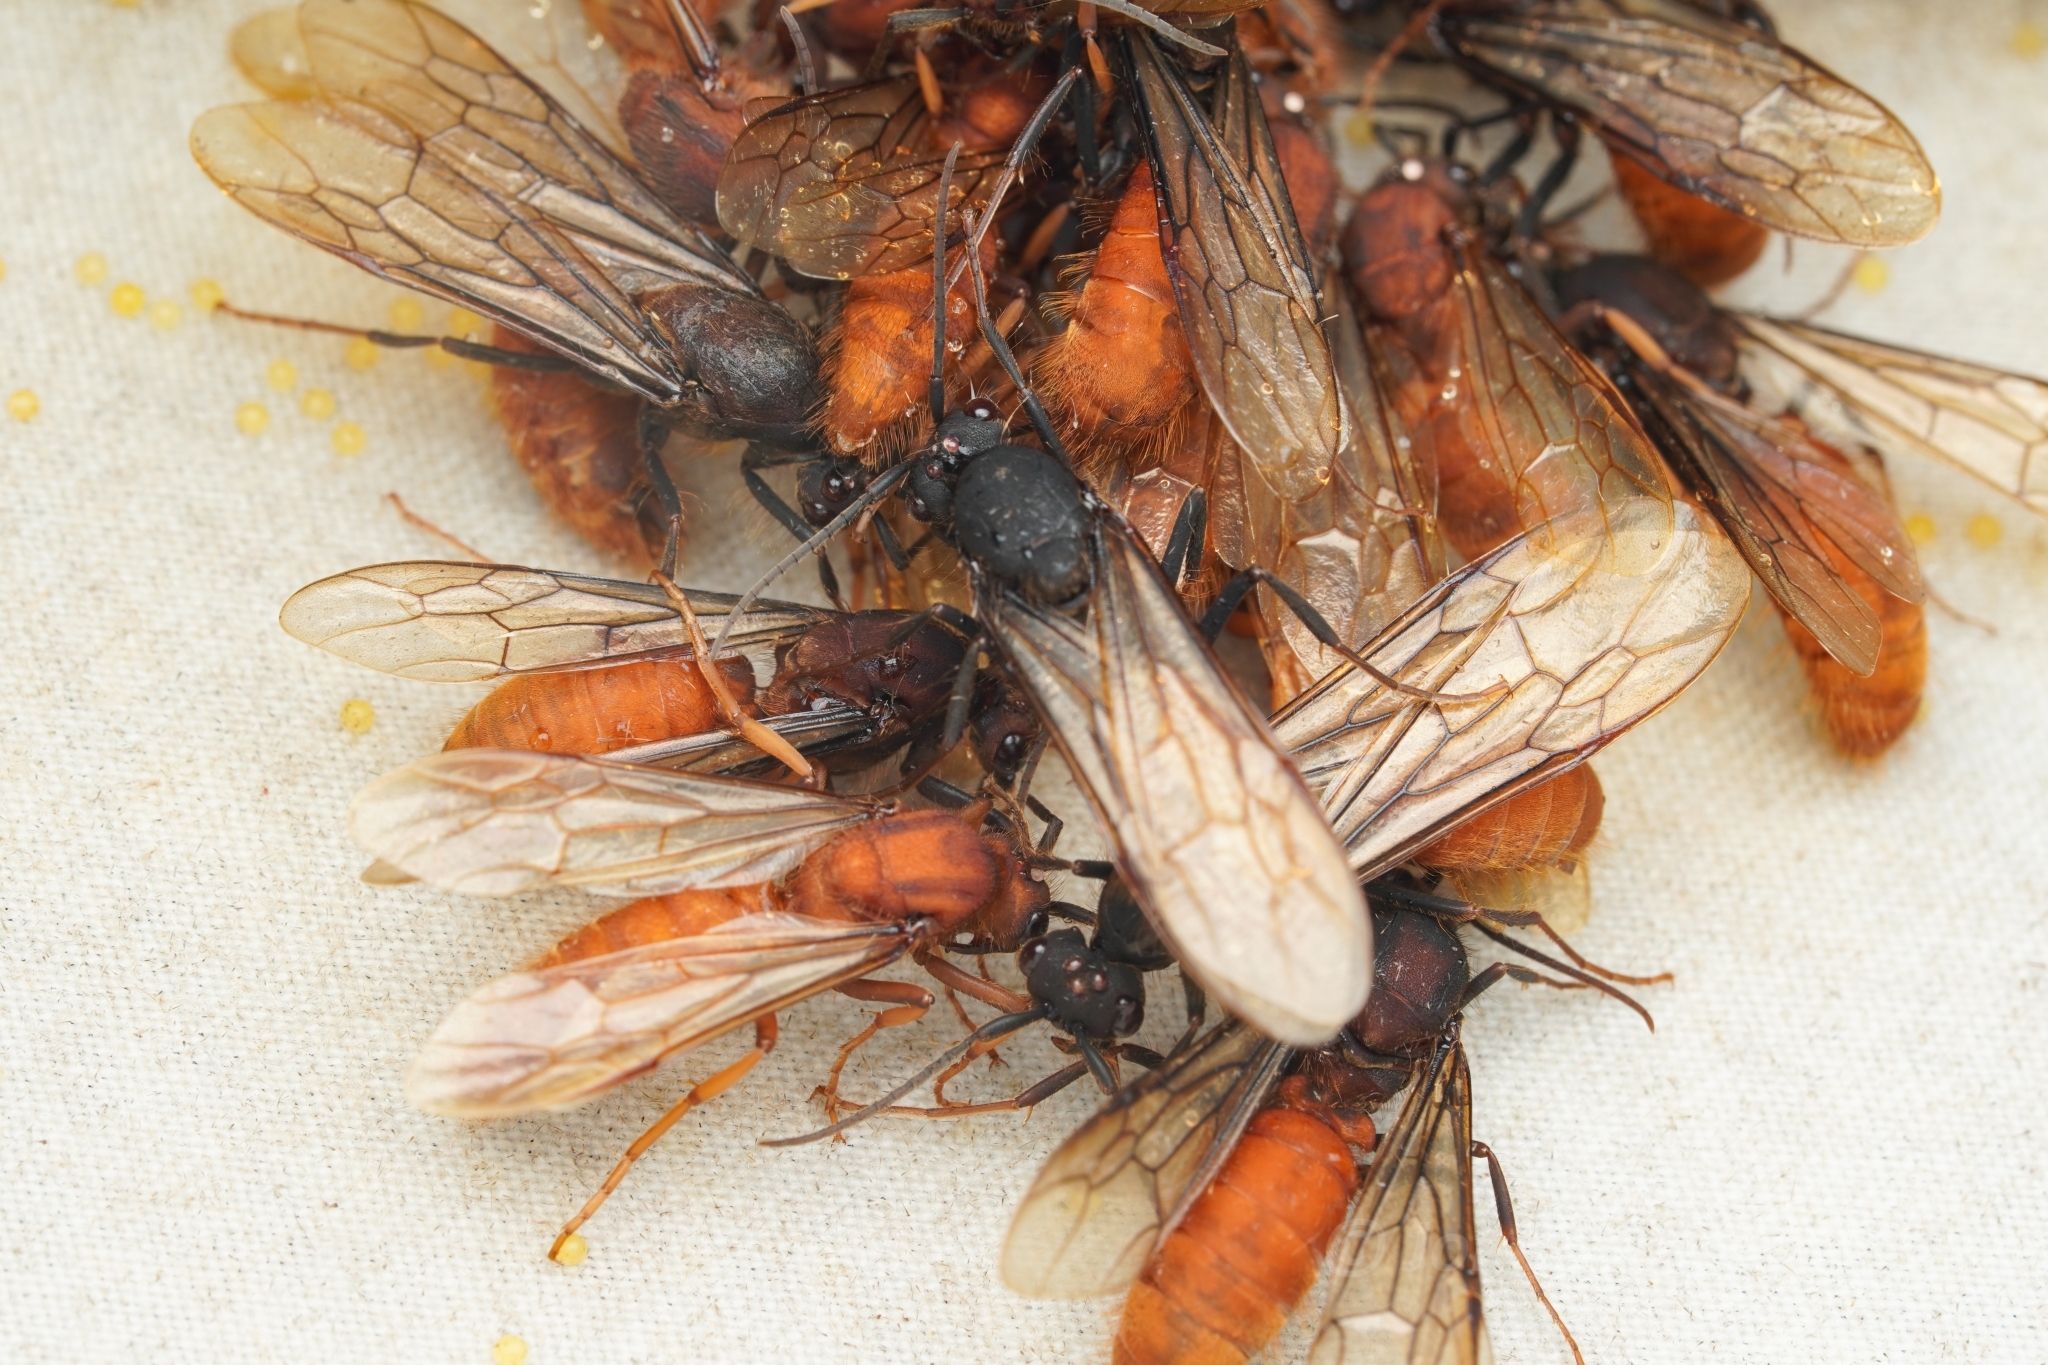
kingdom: Animalia
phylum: Arthropoda
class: Insecta
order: Hymenoptera
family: Formicidae
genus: Eciton
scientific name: Eciton burchellii
